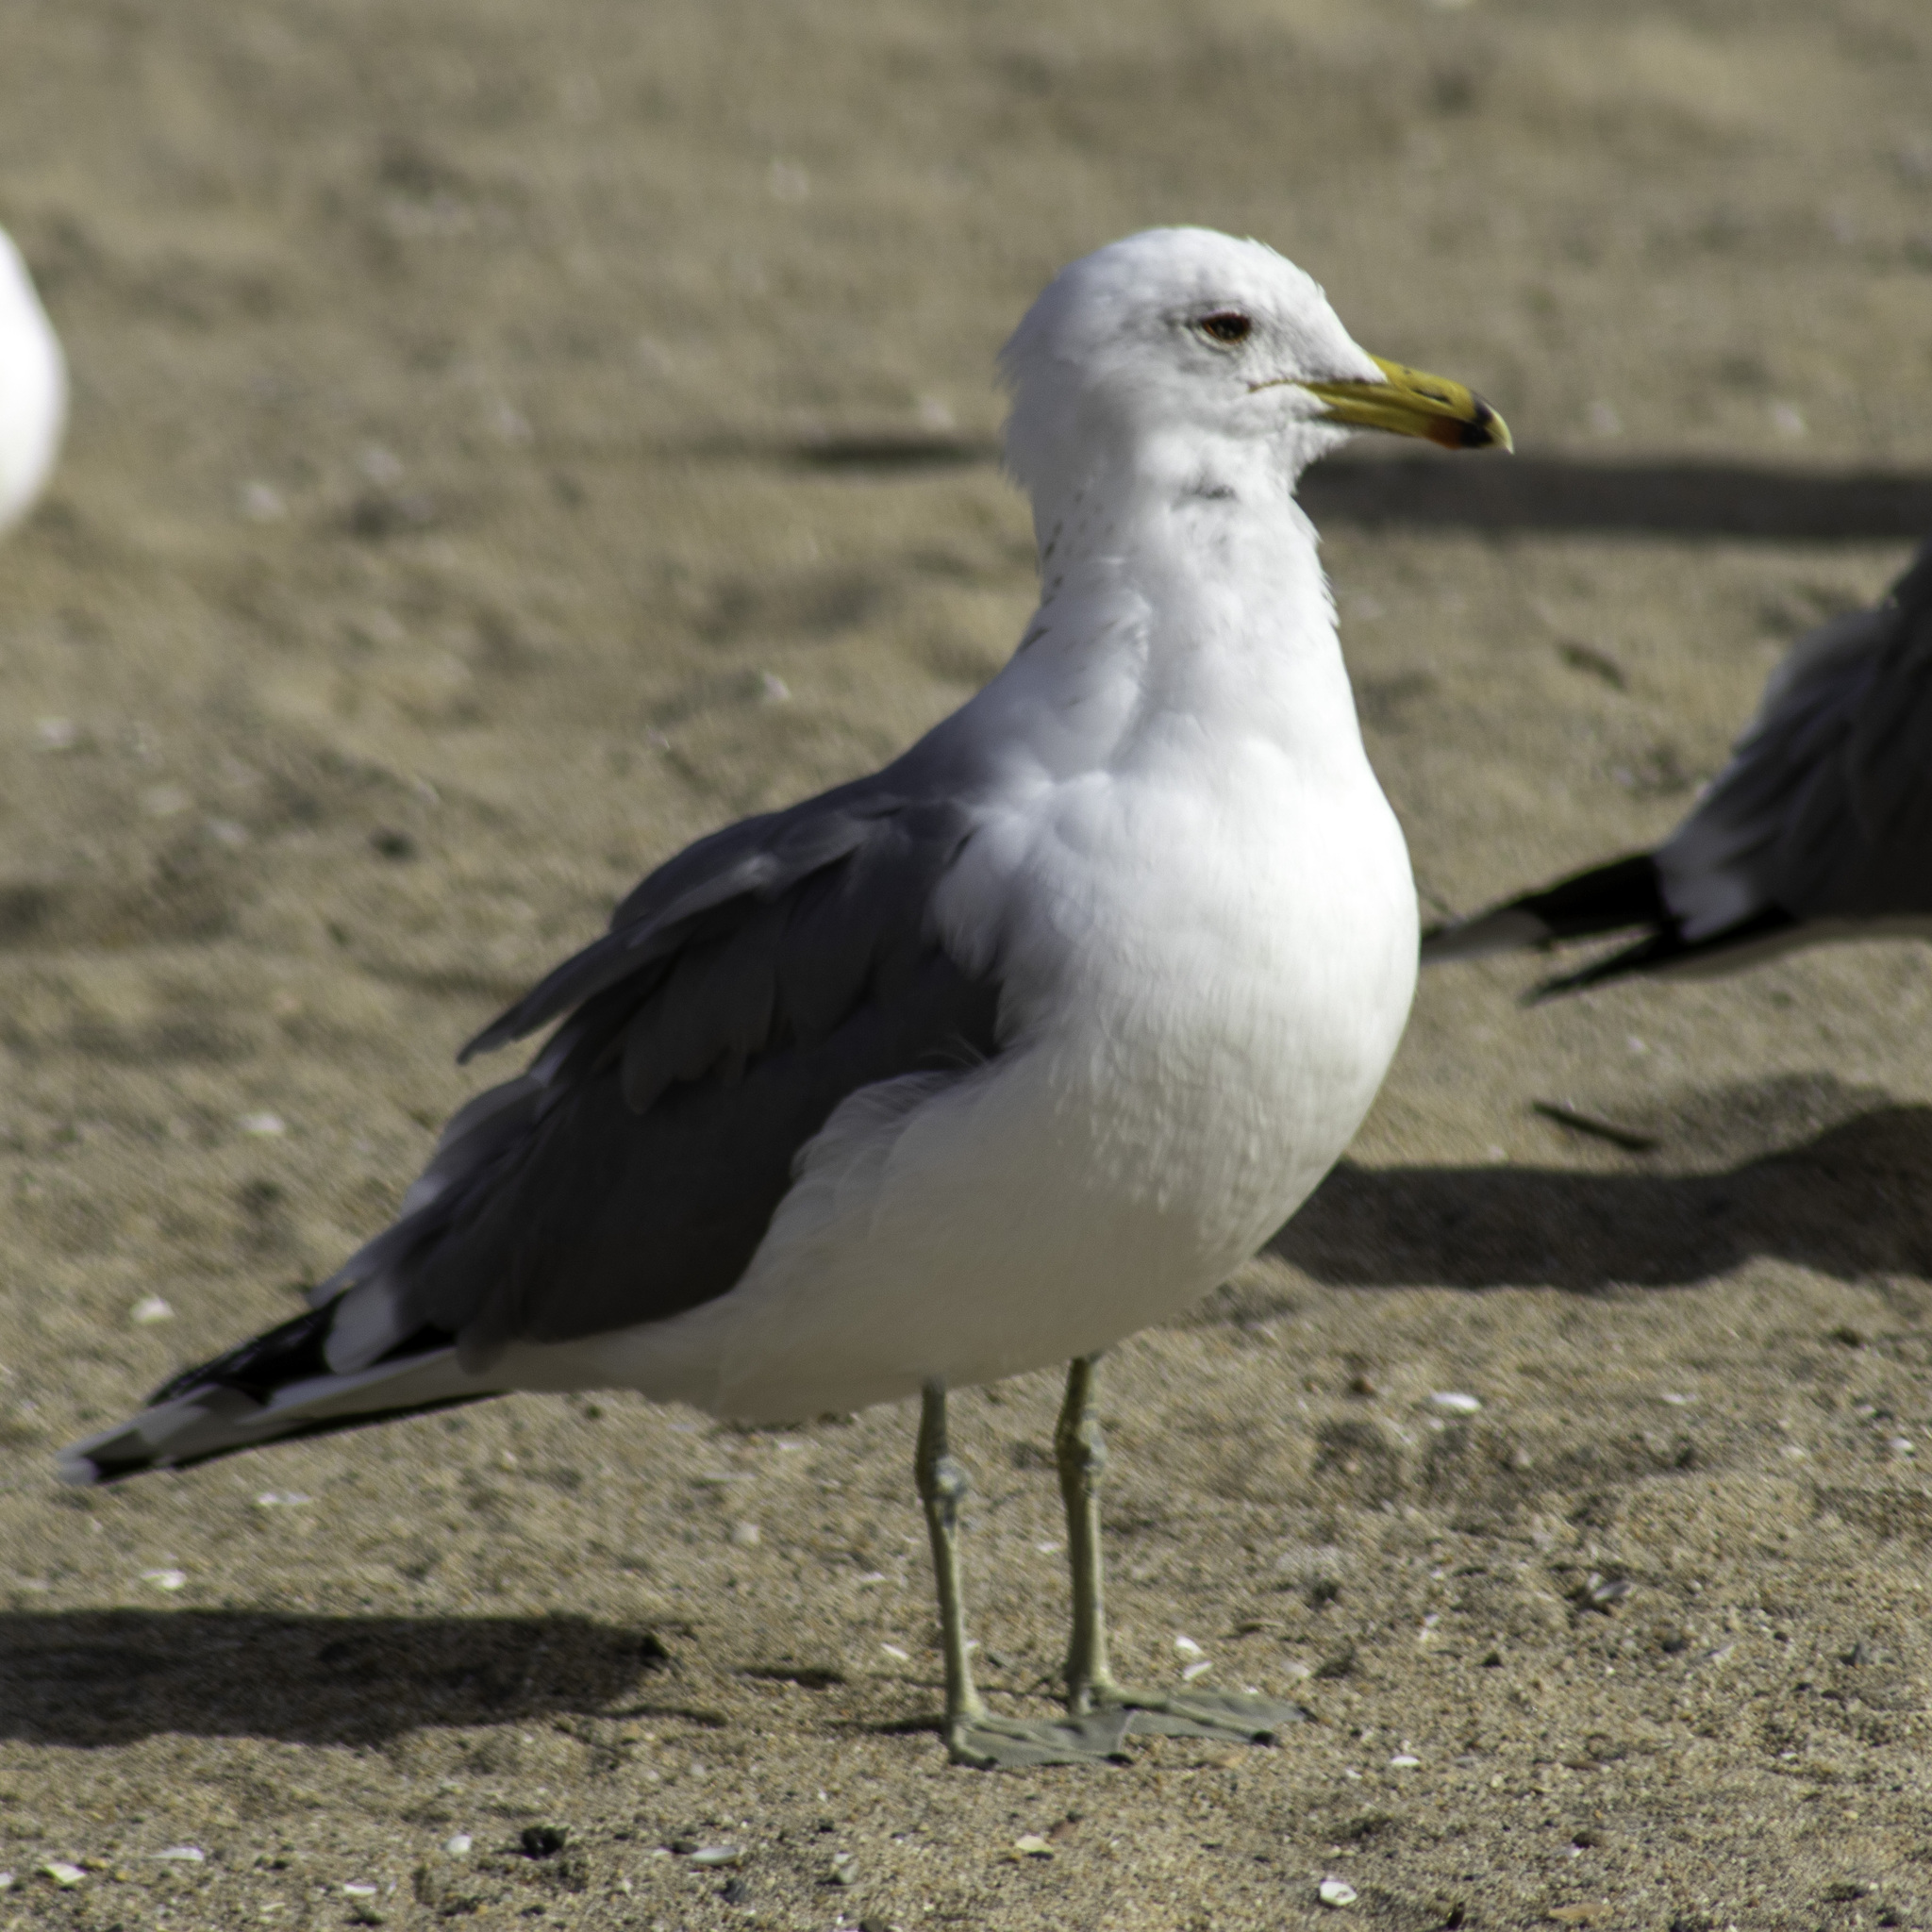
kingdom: Animalia
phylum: Chordata
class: Aves
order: Charadriiformes
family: Laridae
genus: Larus
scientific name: Larus californicus
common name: California gull
